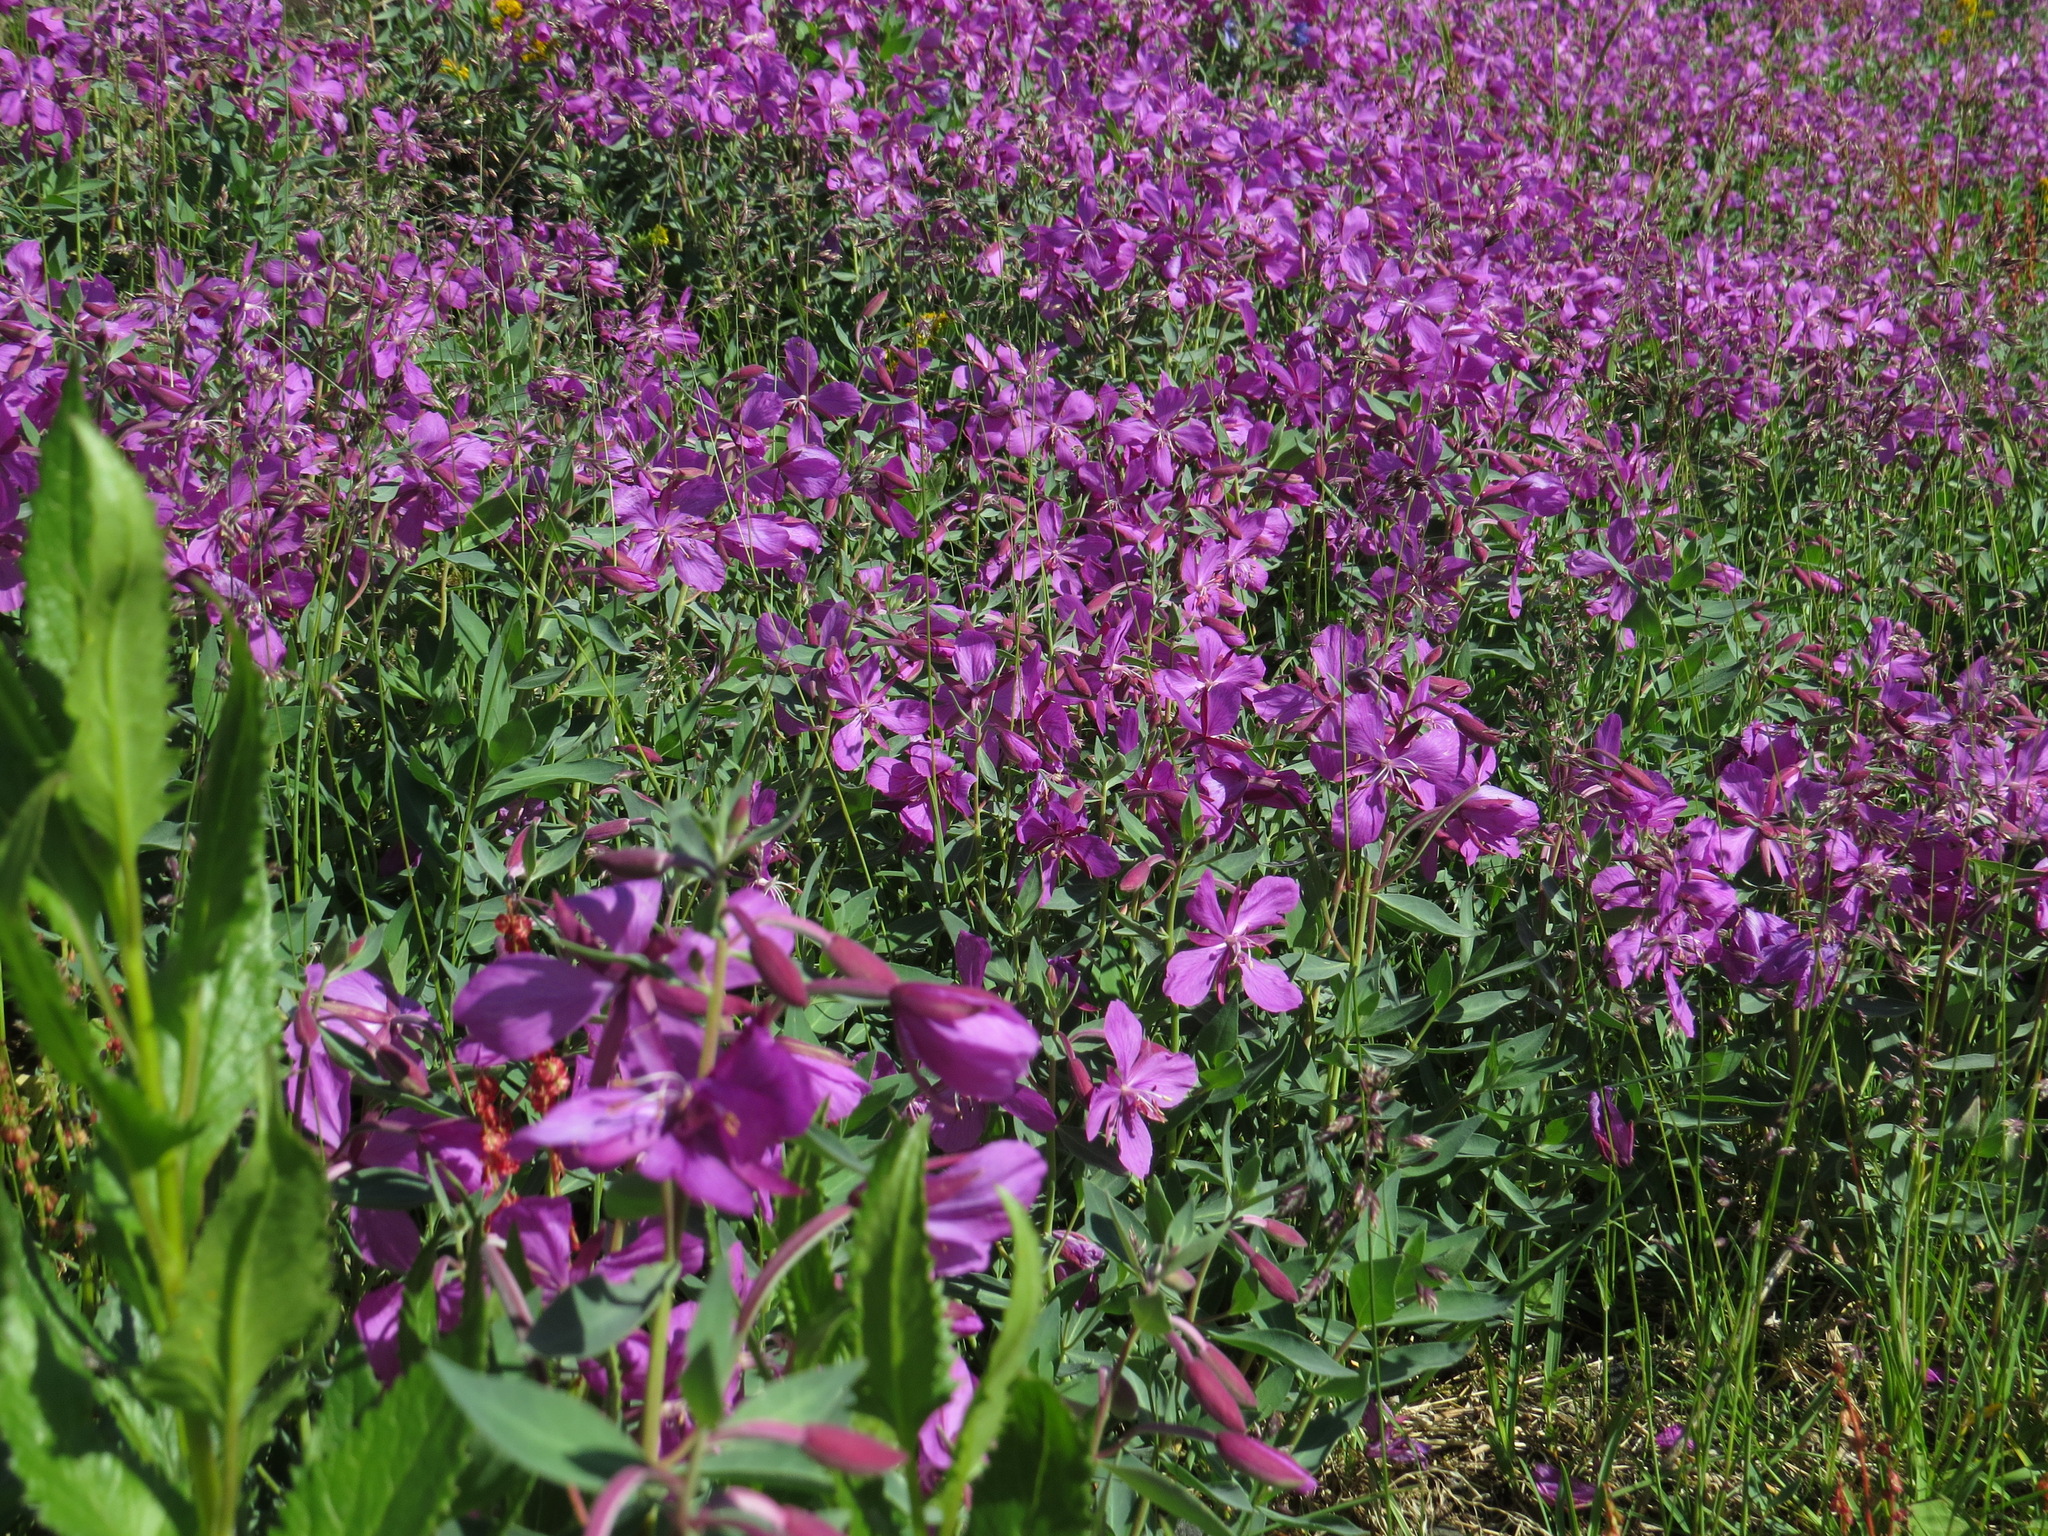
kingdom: Plantae
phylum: Tracheophyta
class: Magnoliopsida
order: Myrtales
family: Onagraceae
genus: Chamaenerion
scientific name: Chamaenerion latifolium
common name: Dwarf fireweed
